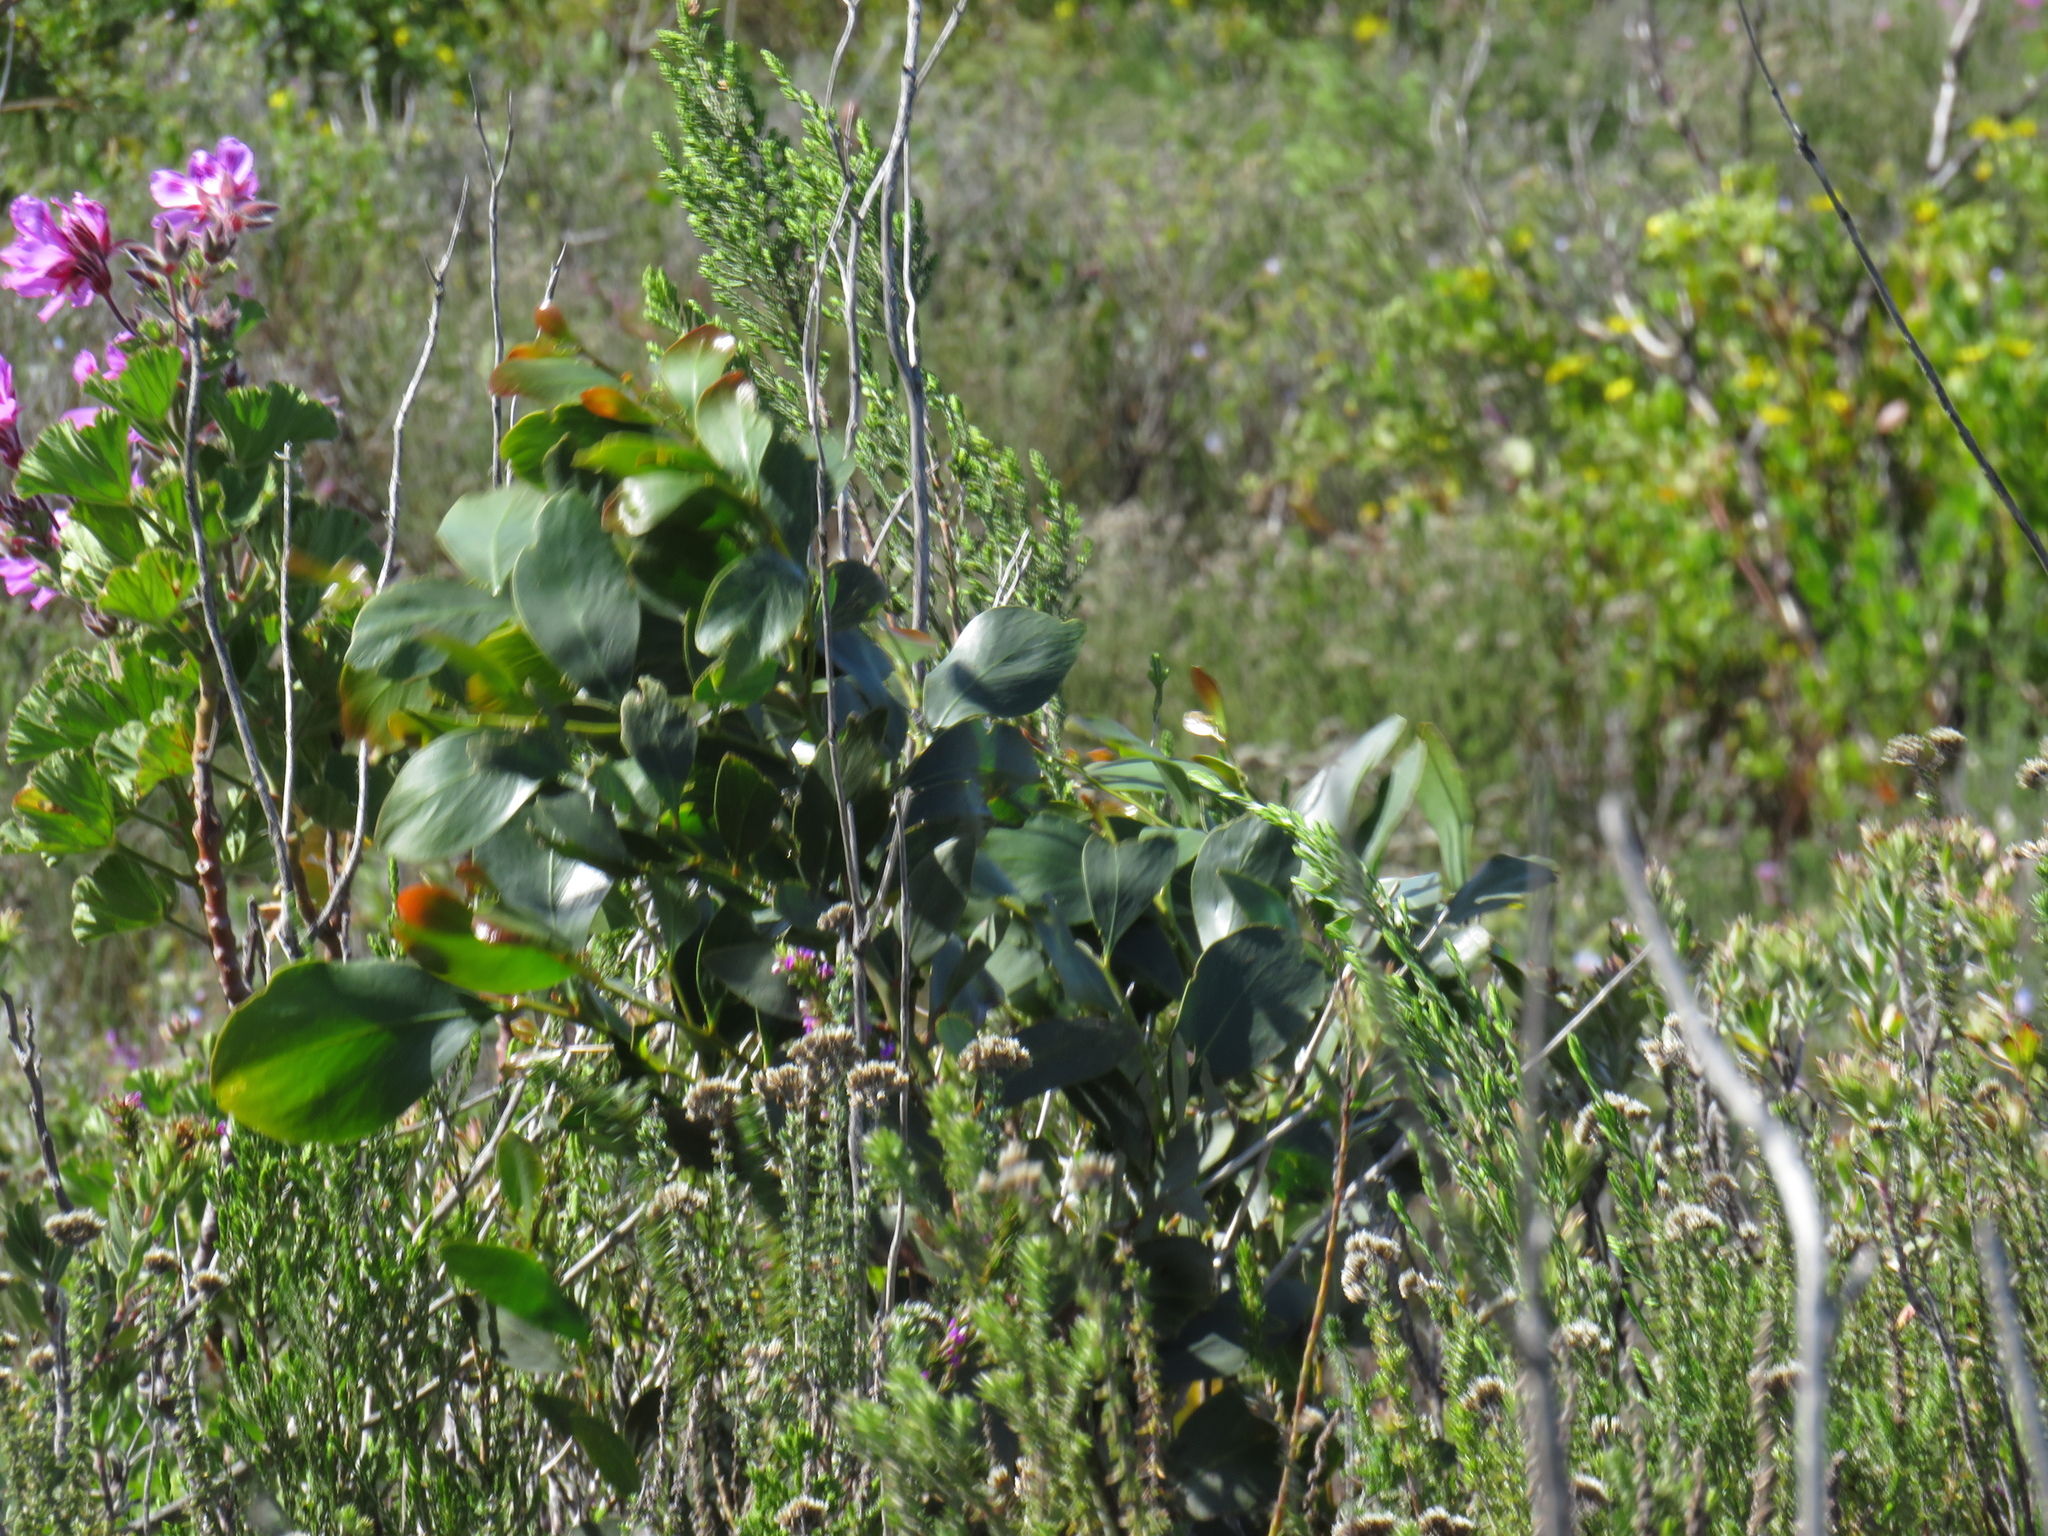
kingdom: Plantae
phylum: Tracheophyta
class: Magnoliopsida
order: Fabales
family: Fabaceae
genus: Acacia
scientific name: Acacia pycnantha
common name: Golden wattle
